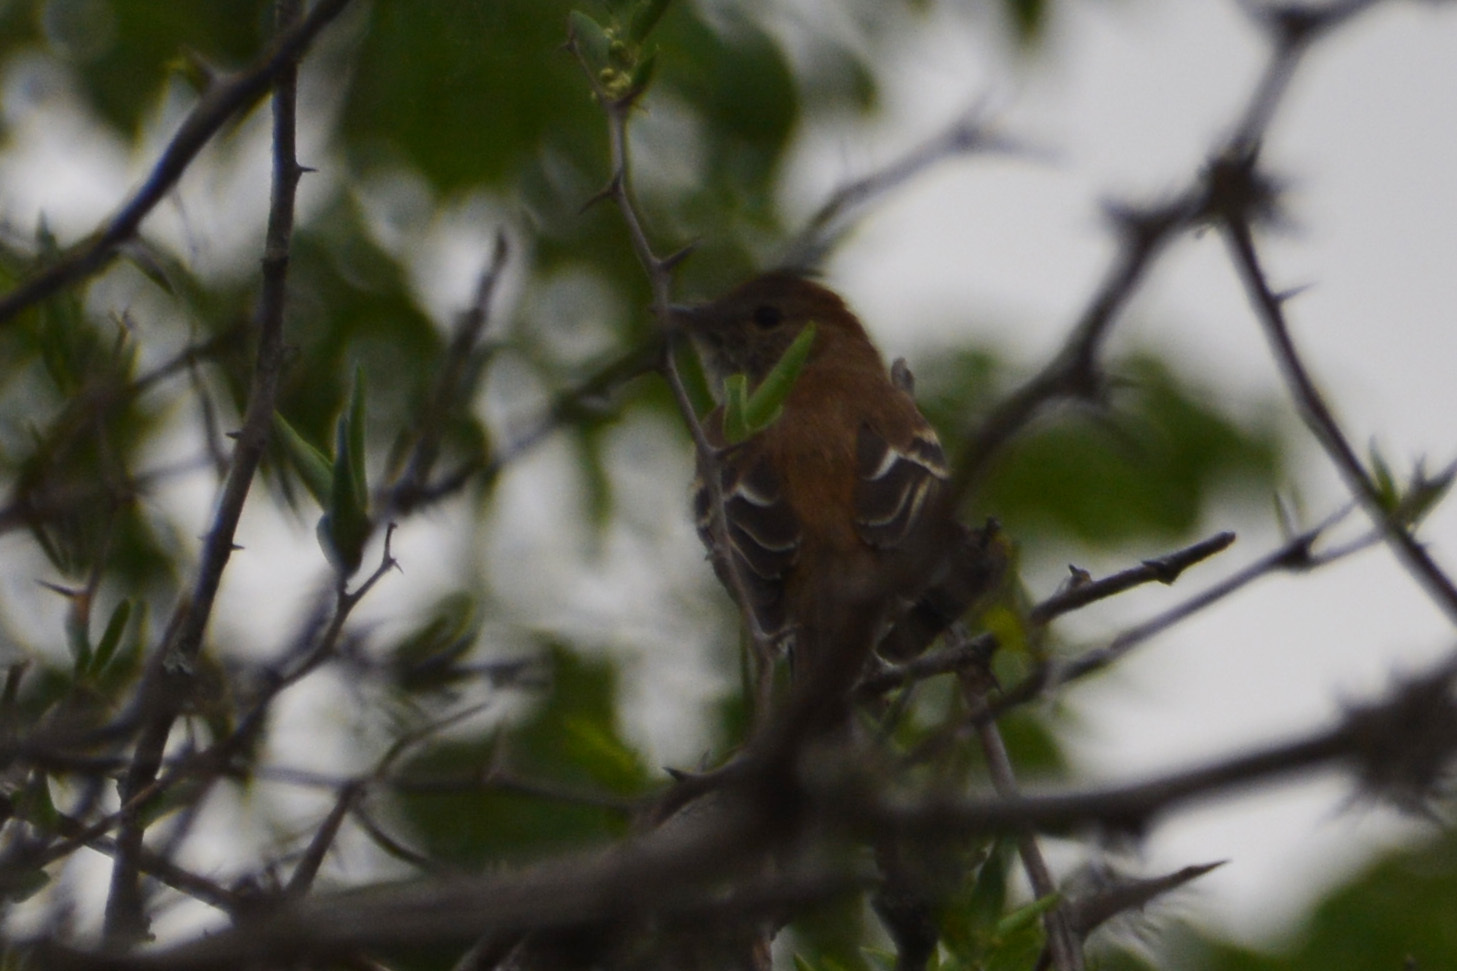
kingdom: Animalia
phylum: Chordata
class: Aves
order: Passeriformes
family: Tyrannidae
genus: Myiophobus
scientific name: Myiophobus fasciatus
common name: Bran-colored flycatcher
